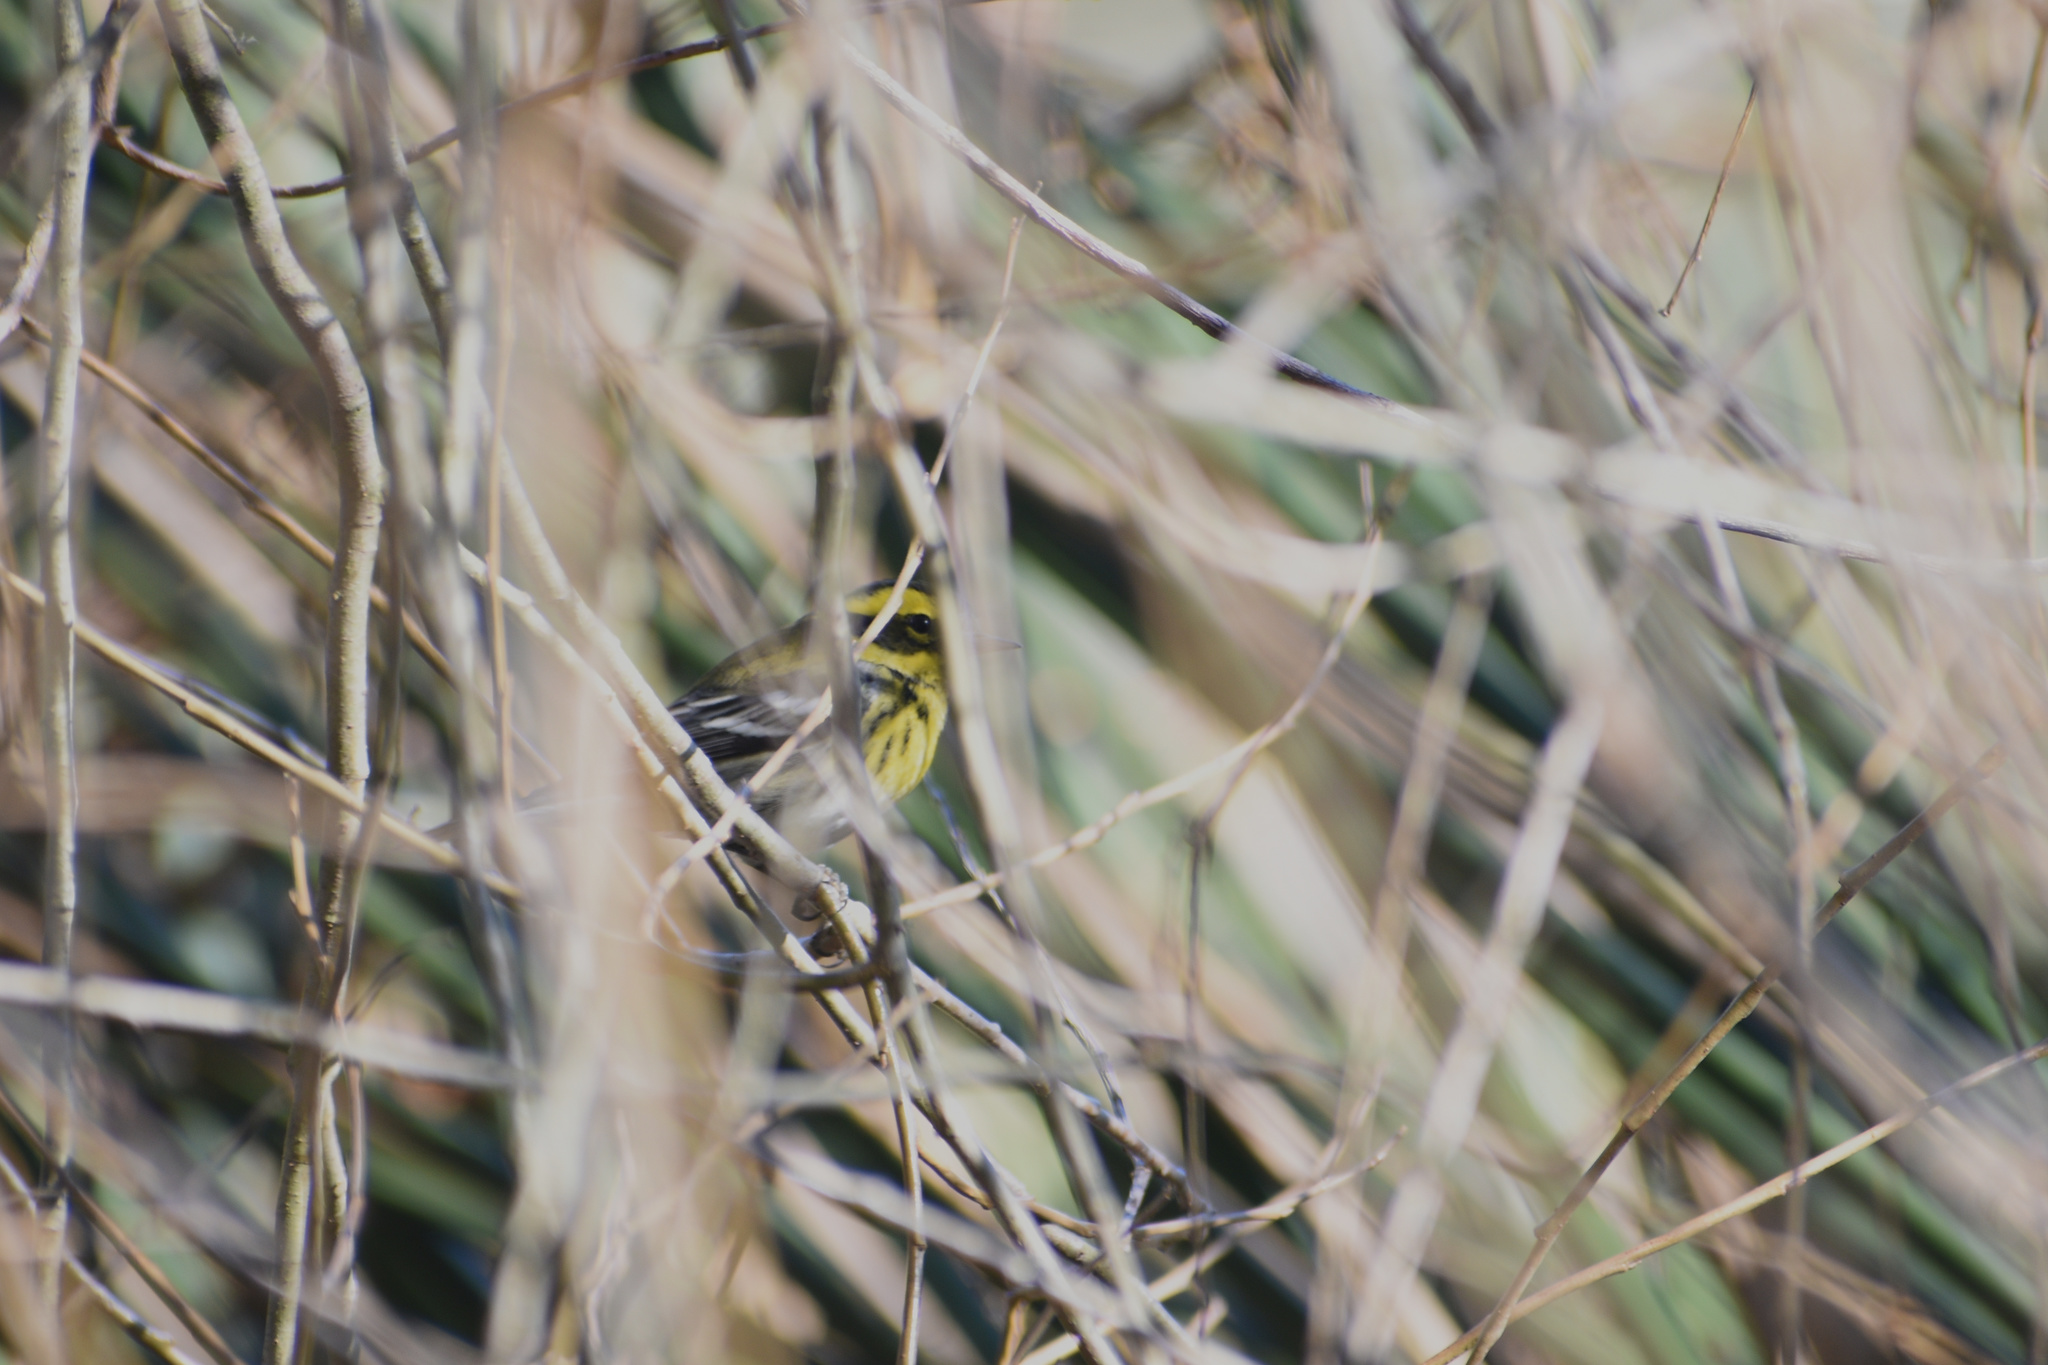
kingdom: Animalia
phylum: Chordata
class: Aves
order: Passeriformes
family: Parulidae
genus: Setophaga
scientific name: Setophaga townsendi
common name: Townsend's warbler
